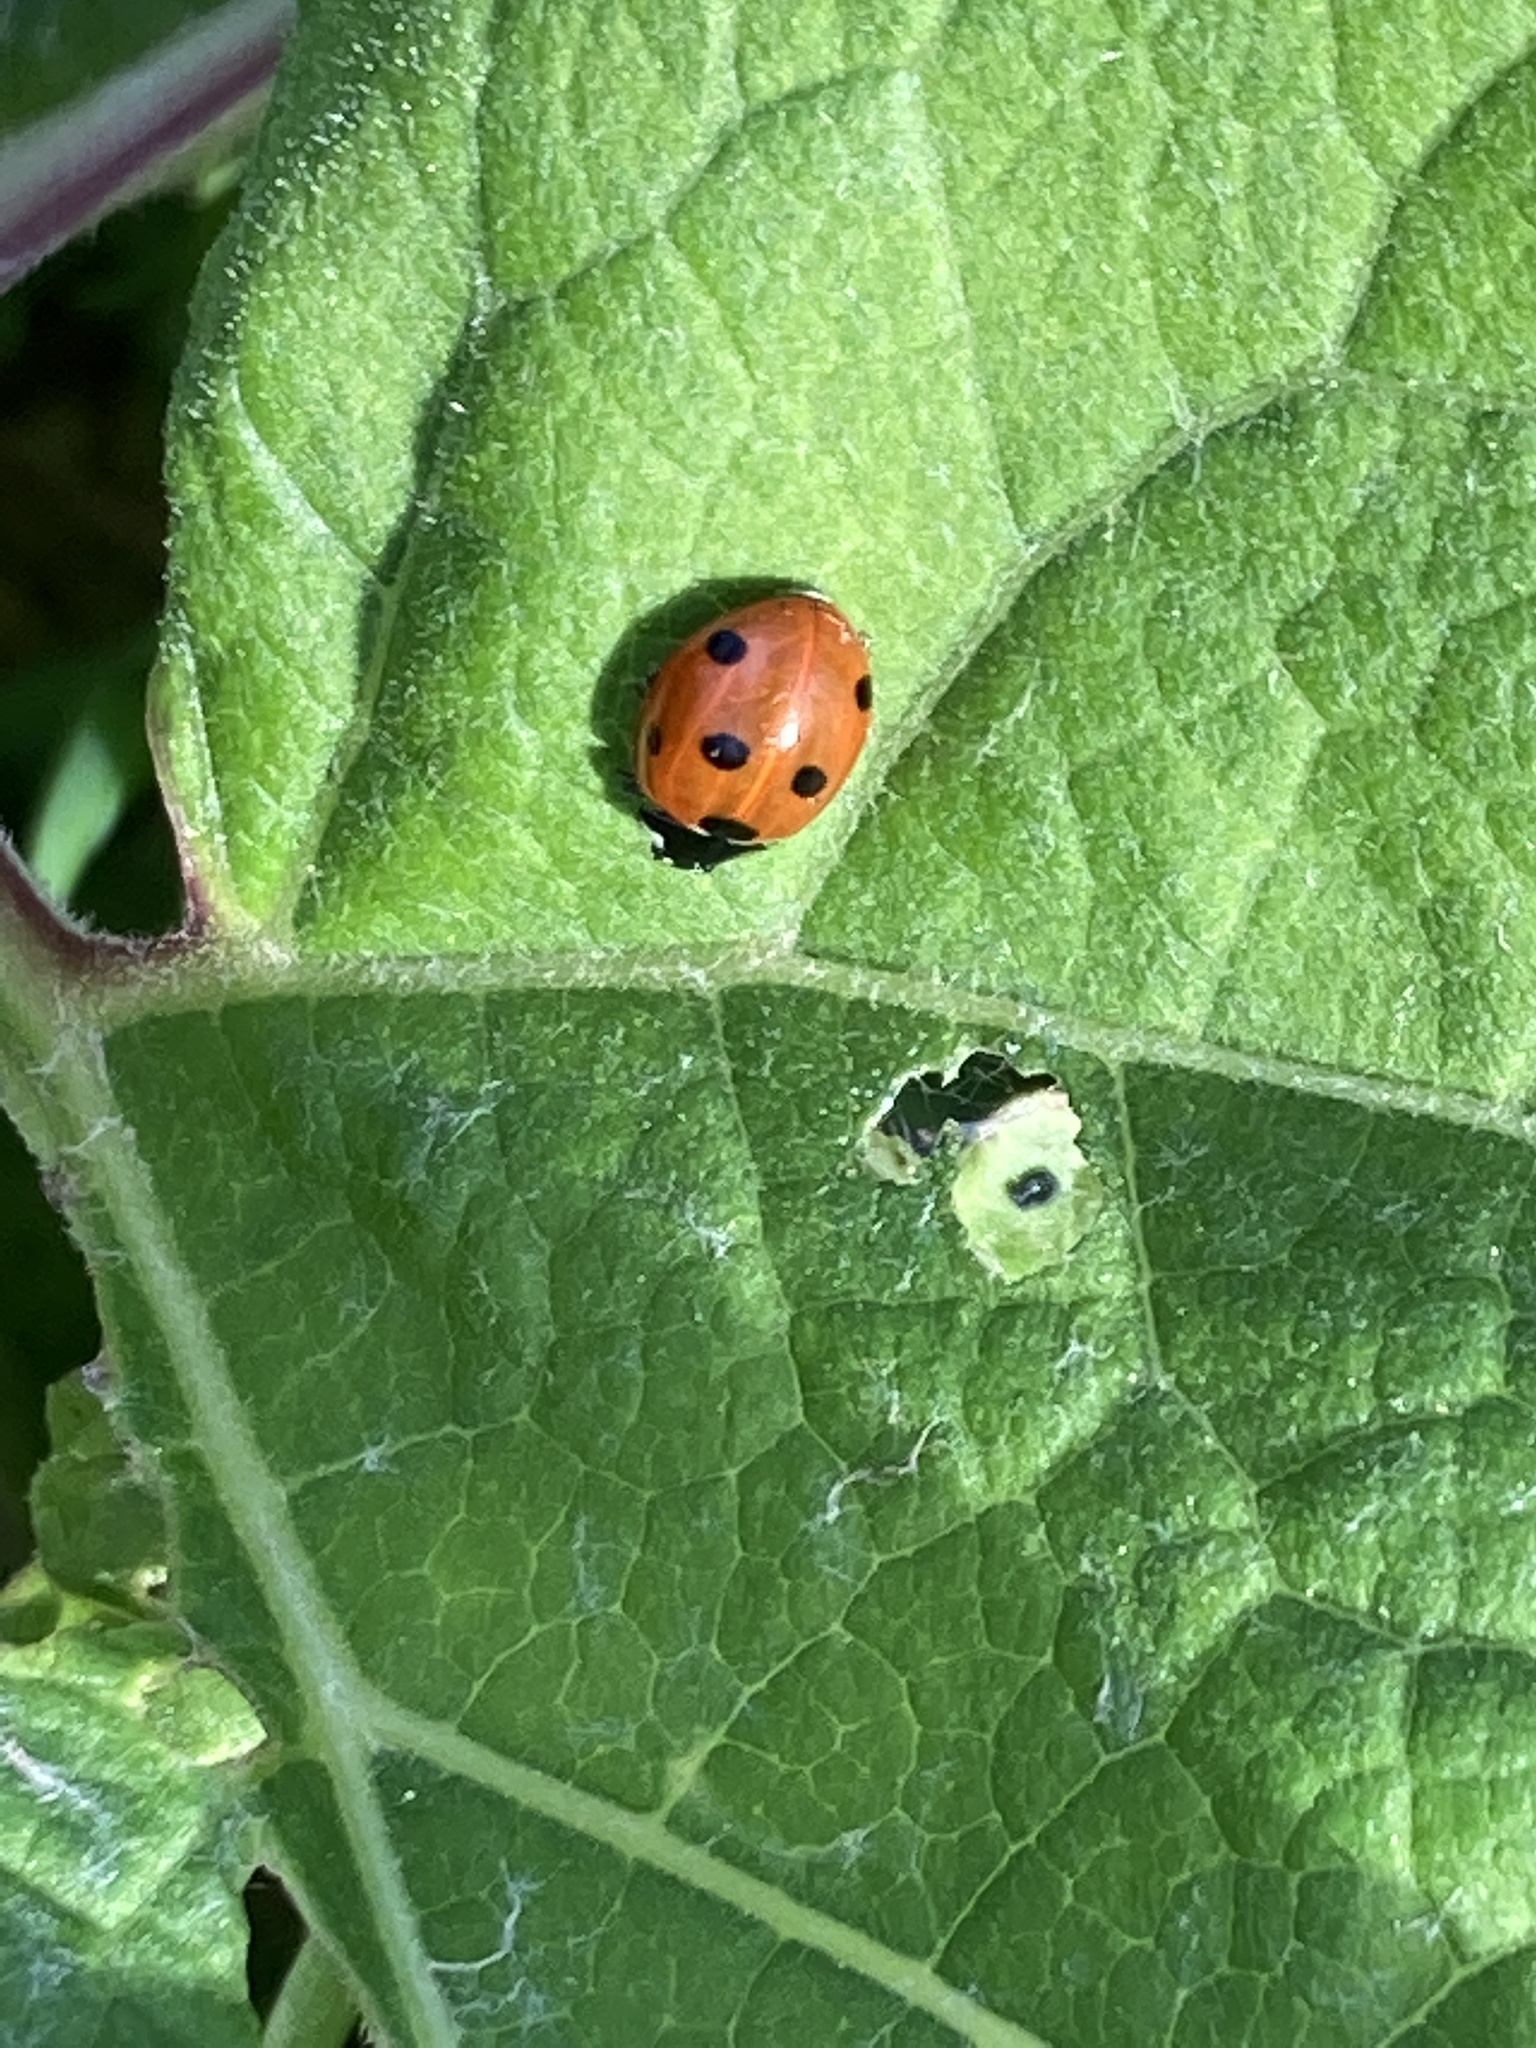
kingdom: Animalia
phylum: Arthropoda
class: Insecta
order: Coleoptera
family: Coccinellidae
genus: Coccinella
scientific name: Coccinella septempunctata
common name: Sevenspotted lady beetle
